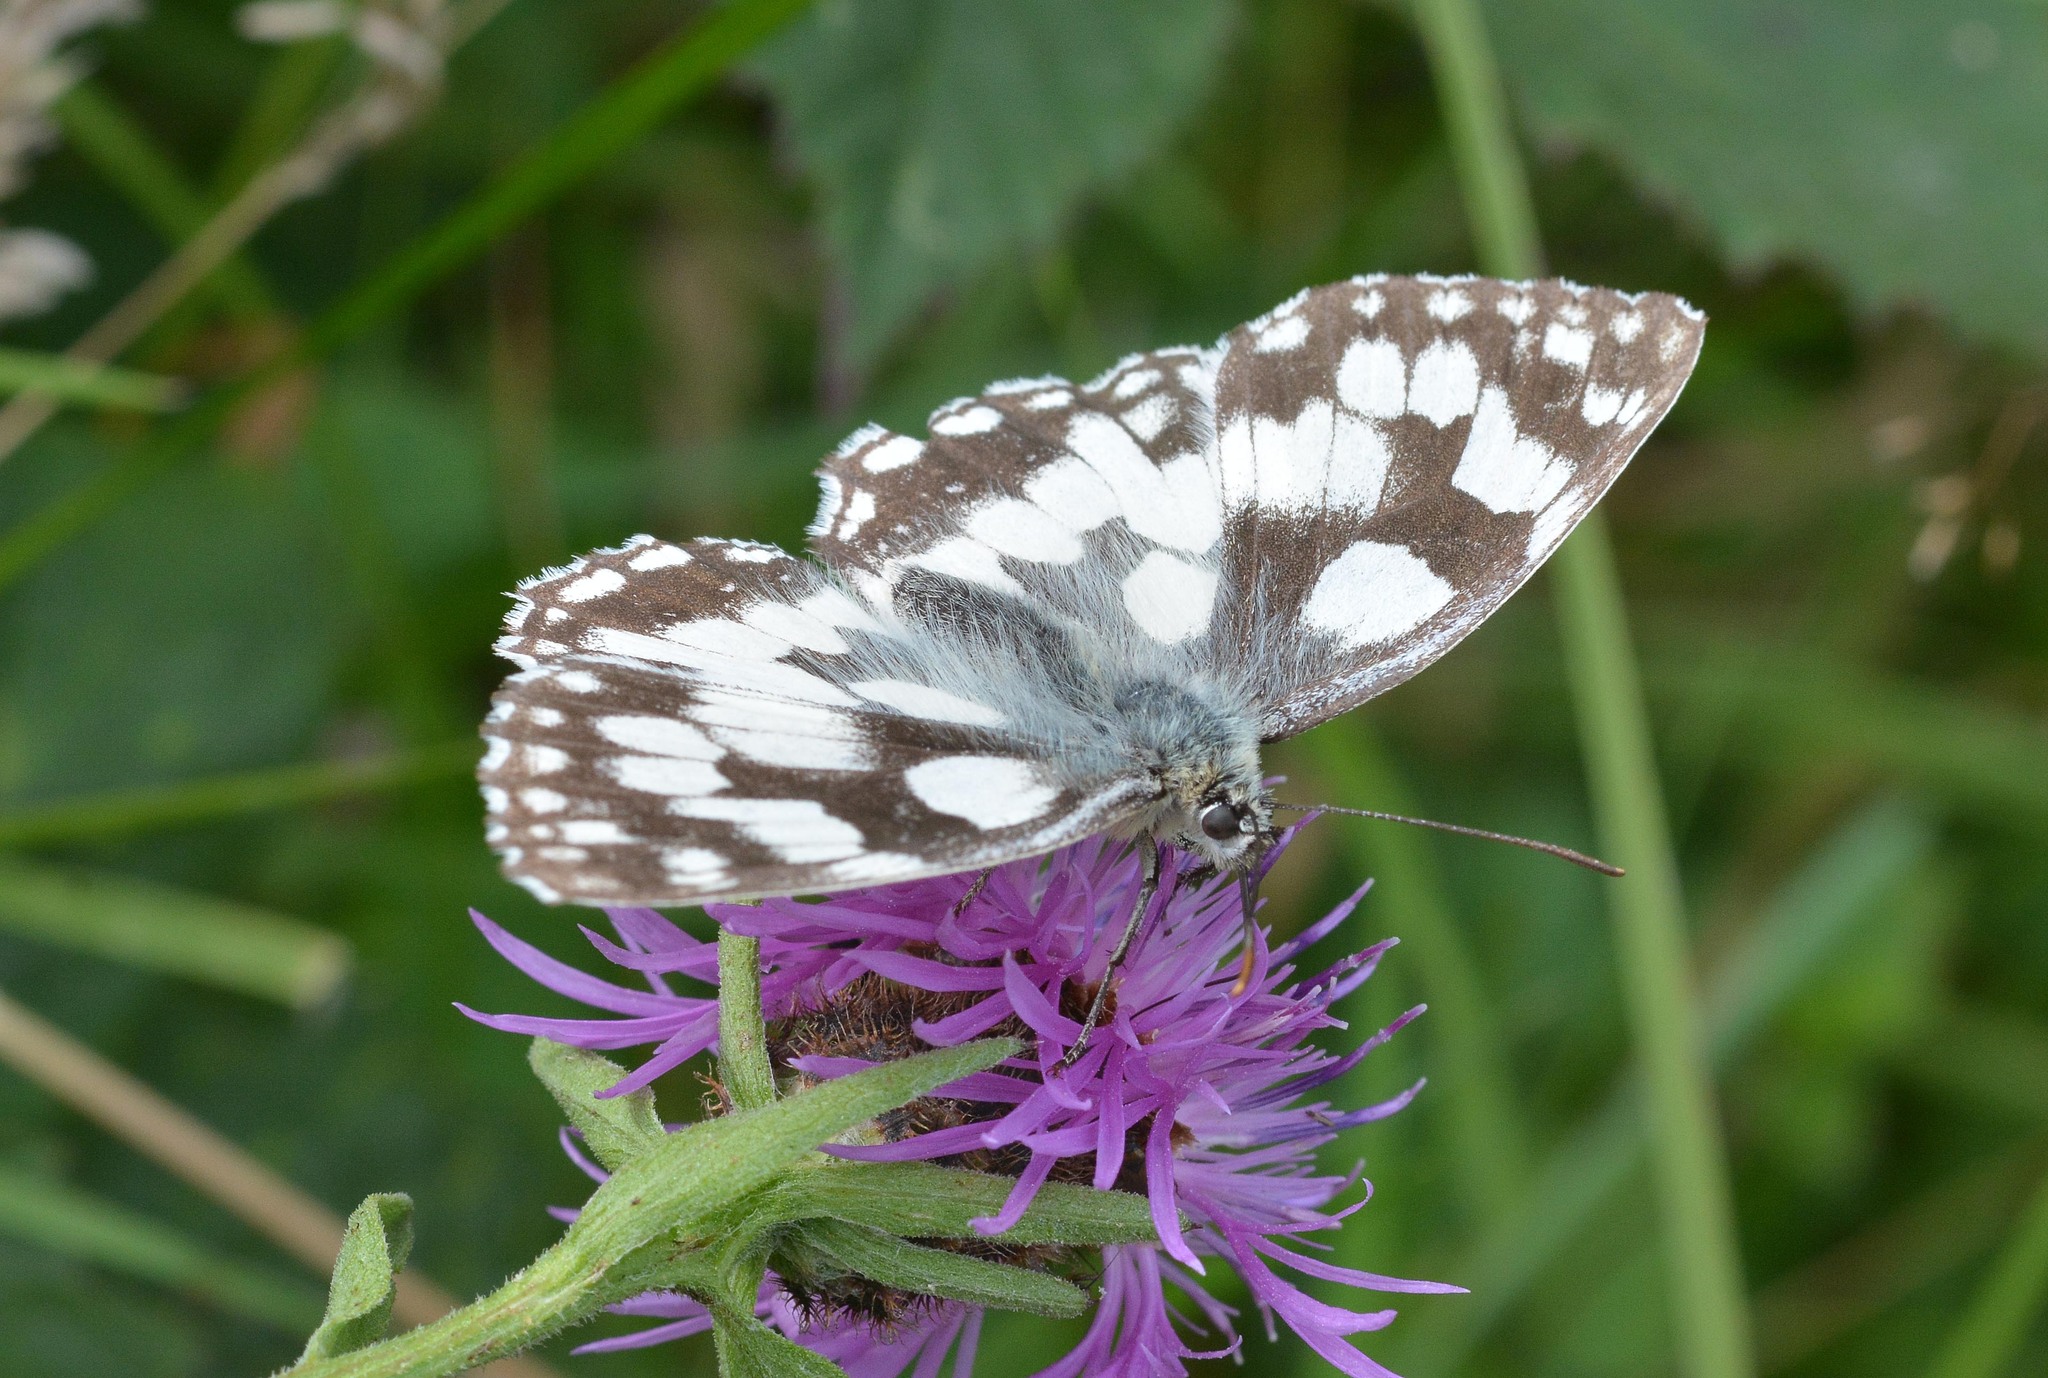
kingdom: Animalia
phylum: Arthropoda
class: Insecta
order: Lepidoptera
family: Nymphalidae
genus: Melanargia
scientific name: Melanargia galathea
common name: Marbled white
